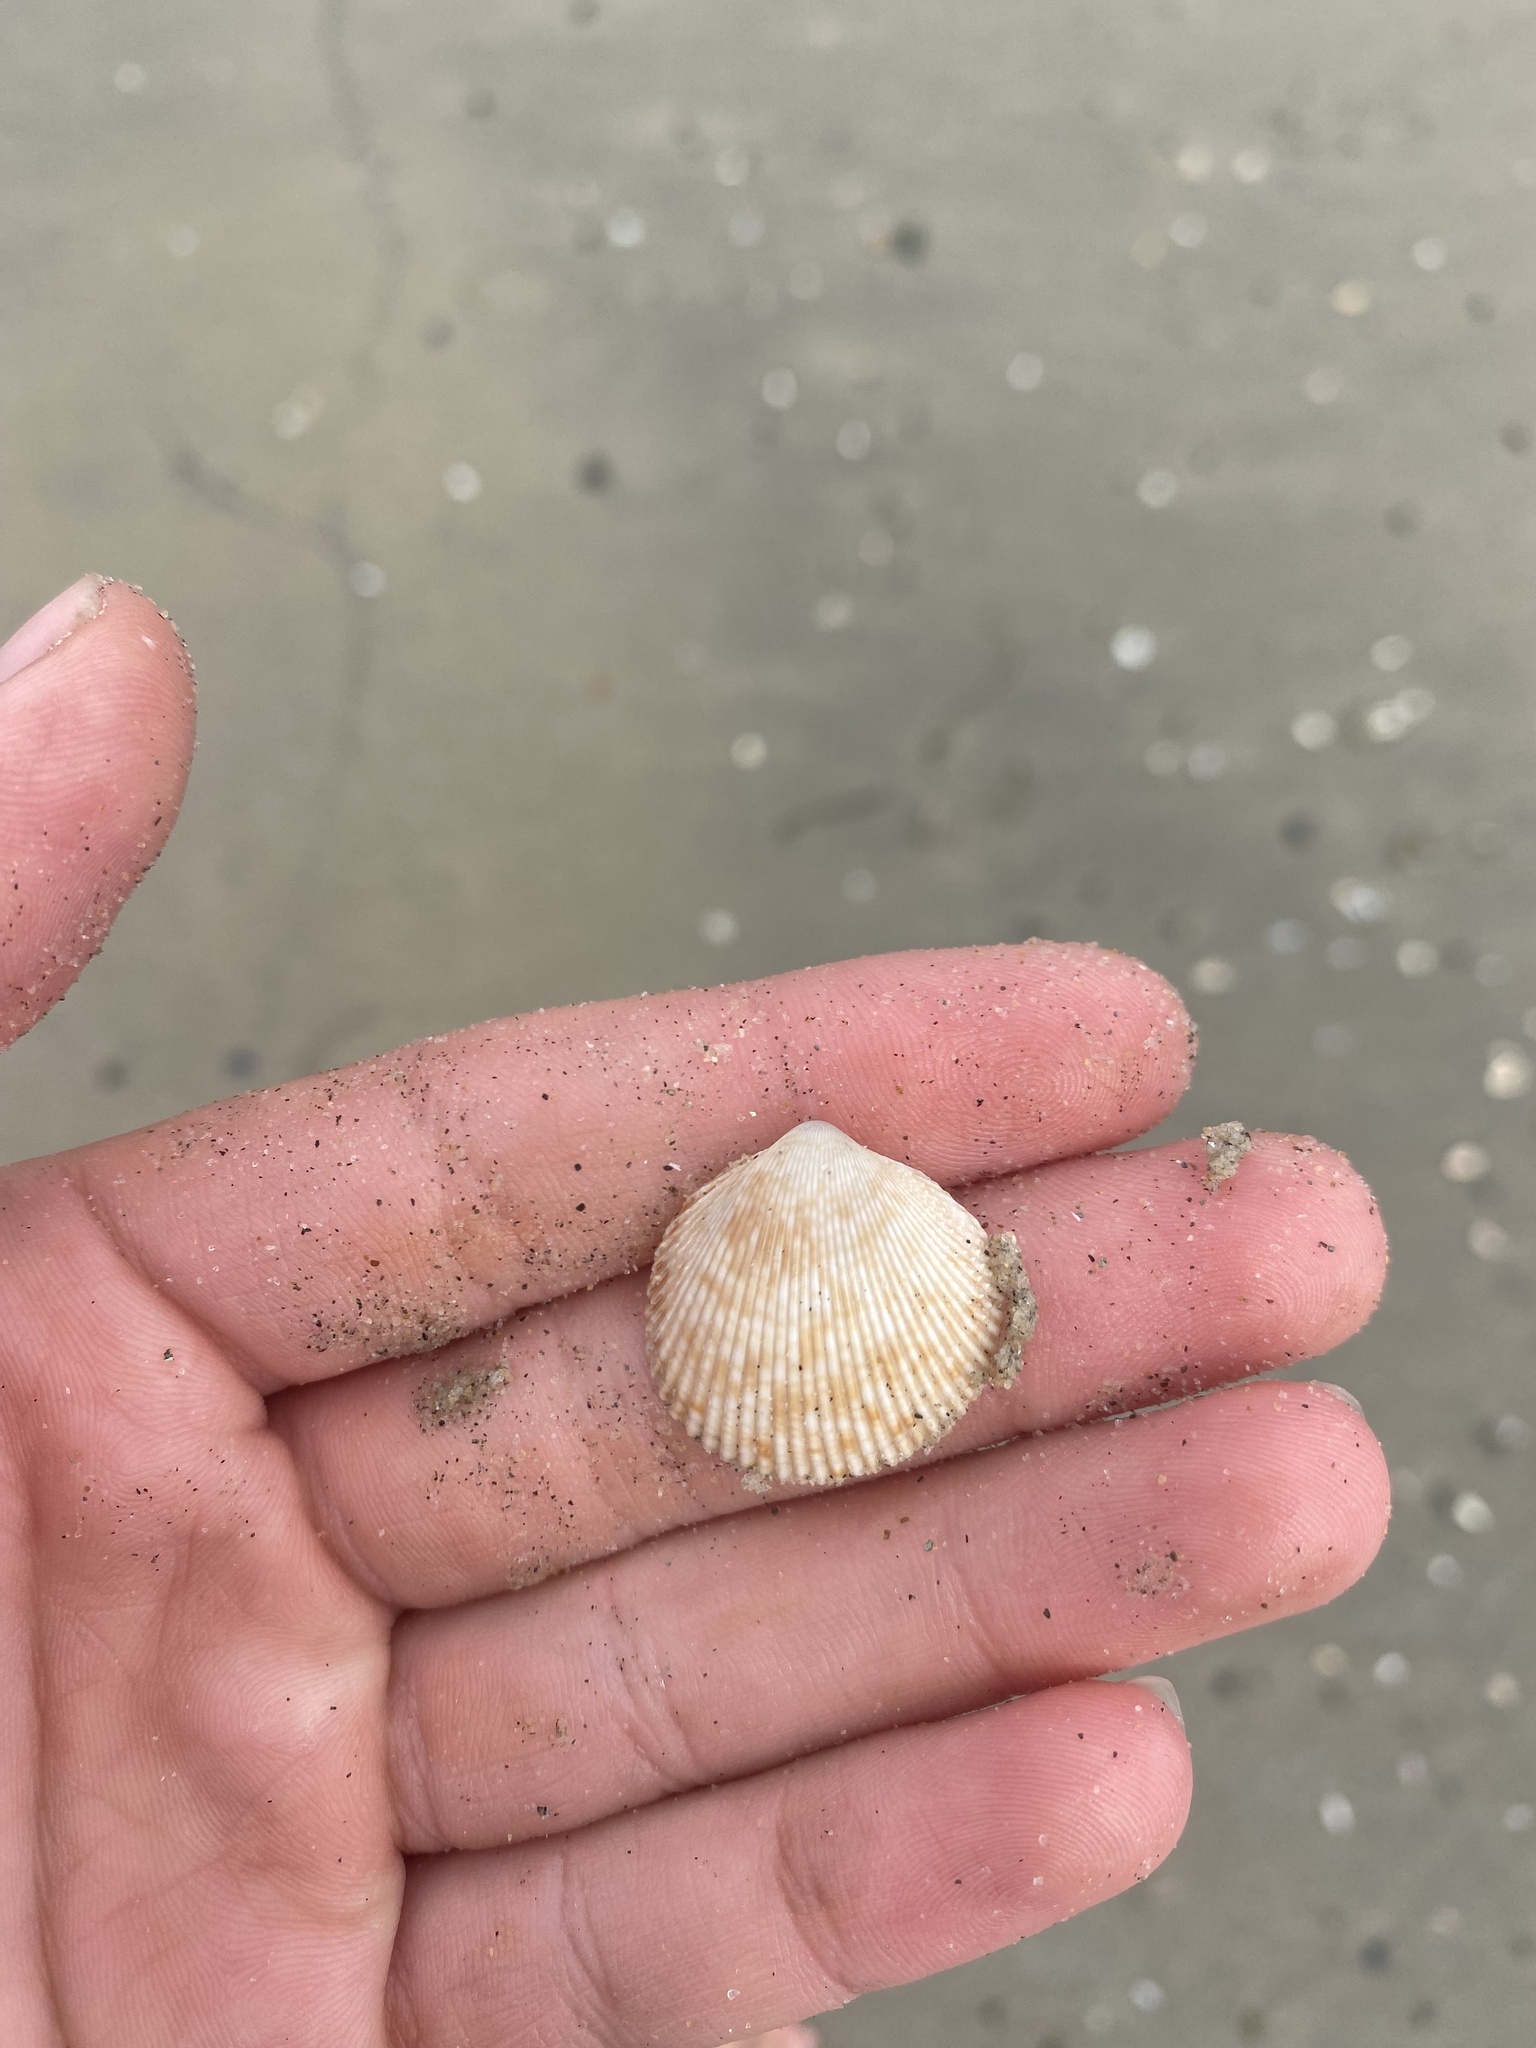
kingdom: Animalia
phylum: Mollusca
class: Bivalvia
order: Cardiida
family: Cardiidae
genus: Dallocardia
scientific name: Dallocardia quadragenaria
